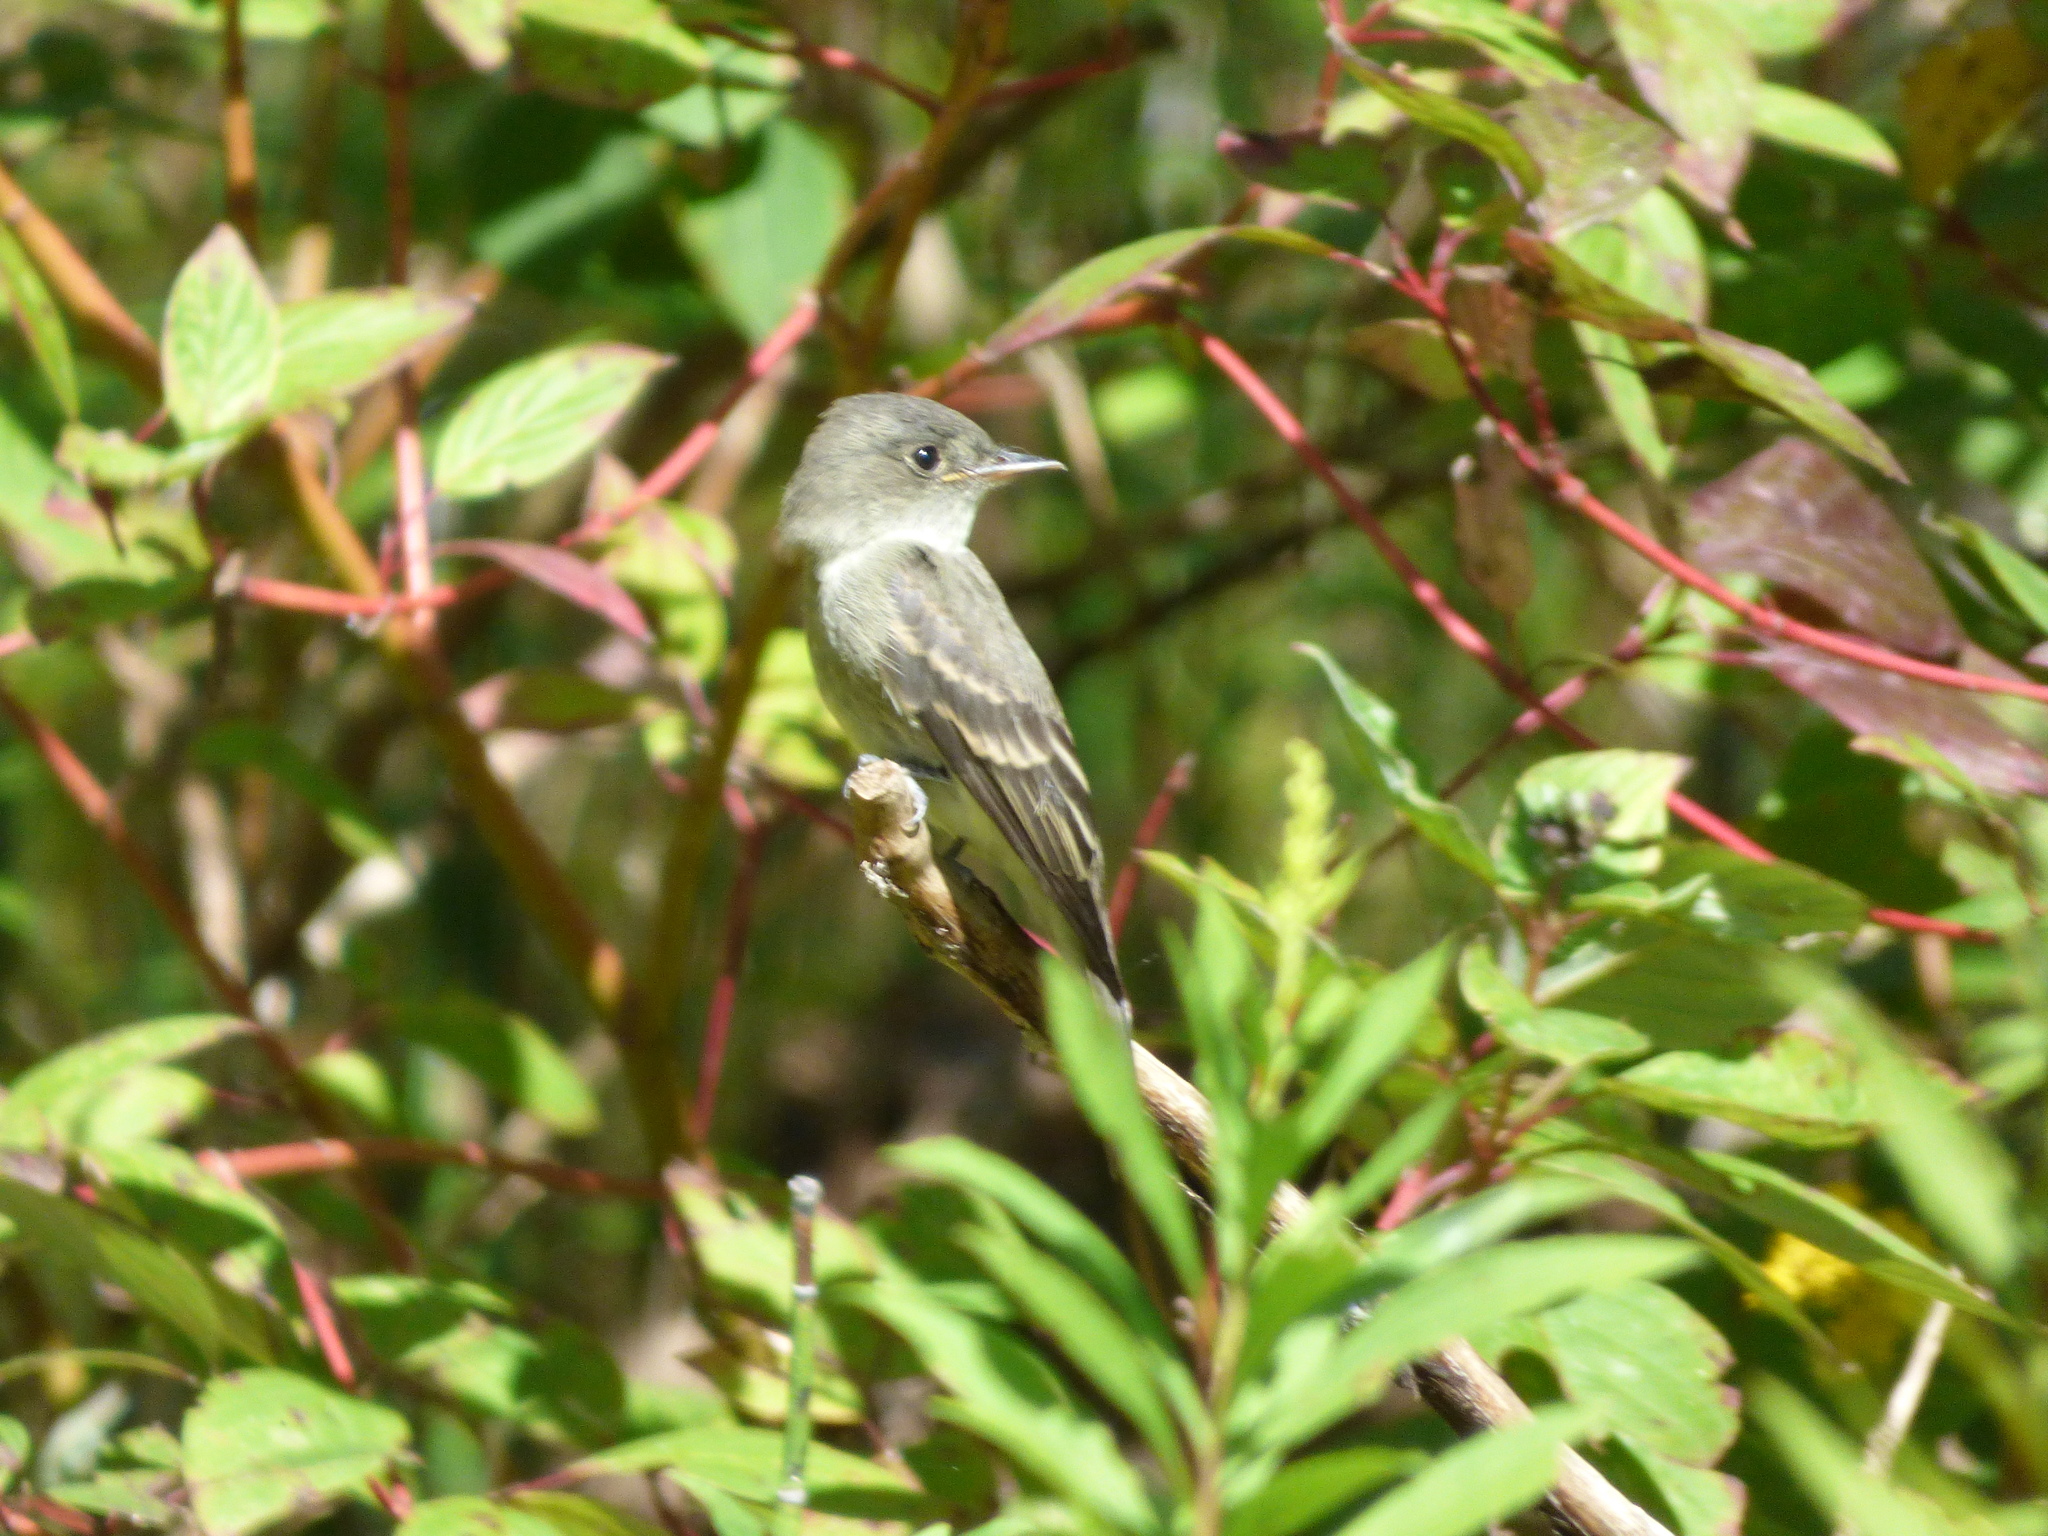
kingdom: Animalia
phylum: Chordata
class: Aves
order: Passeriformes
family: Tyrannidae
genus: Contopus
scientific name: Contopus virens
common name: Eastern wood-pewee
